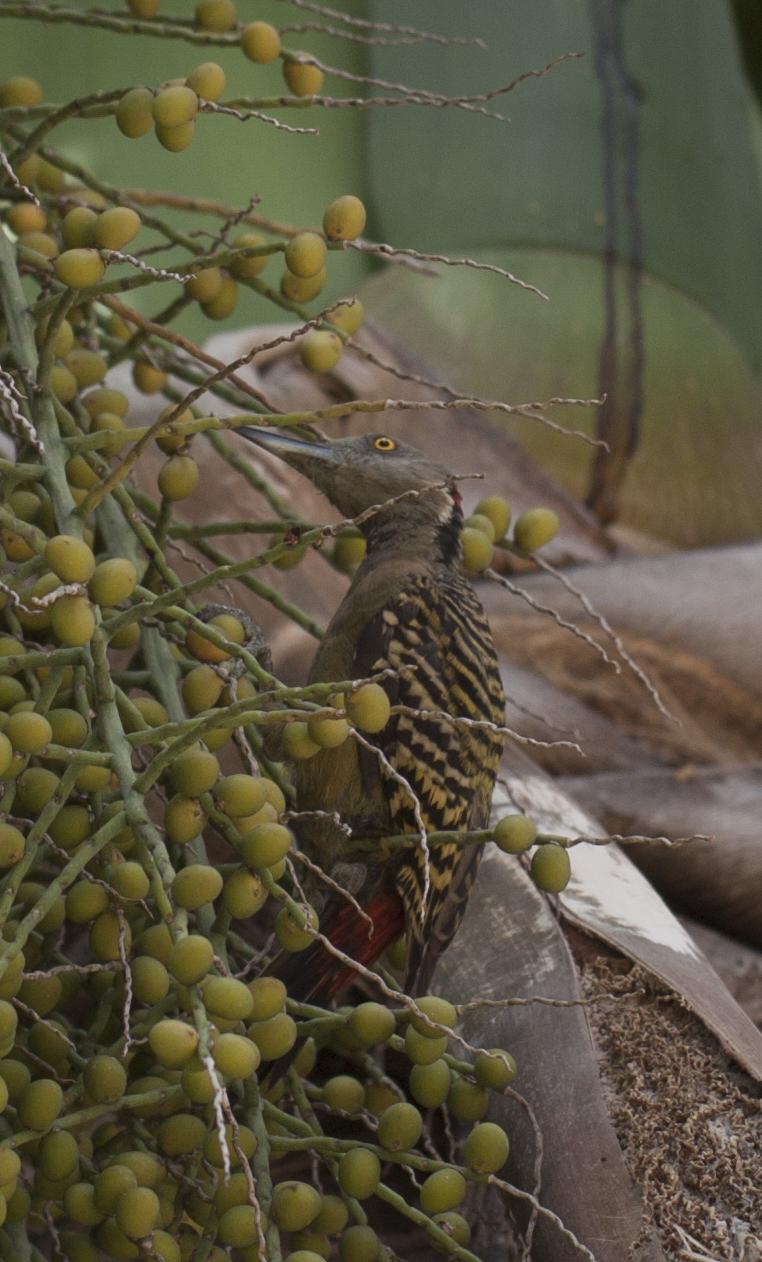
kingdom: Animalia
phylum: Chordata
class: Aves
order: Piciformes
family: Picidae
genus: Melanerpes
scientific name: Melanerpes striatus
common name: Hispaniolan woodpecker
